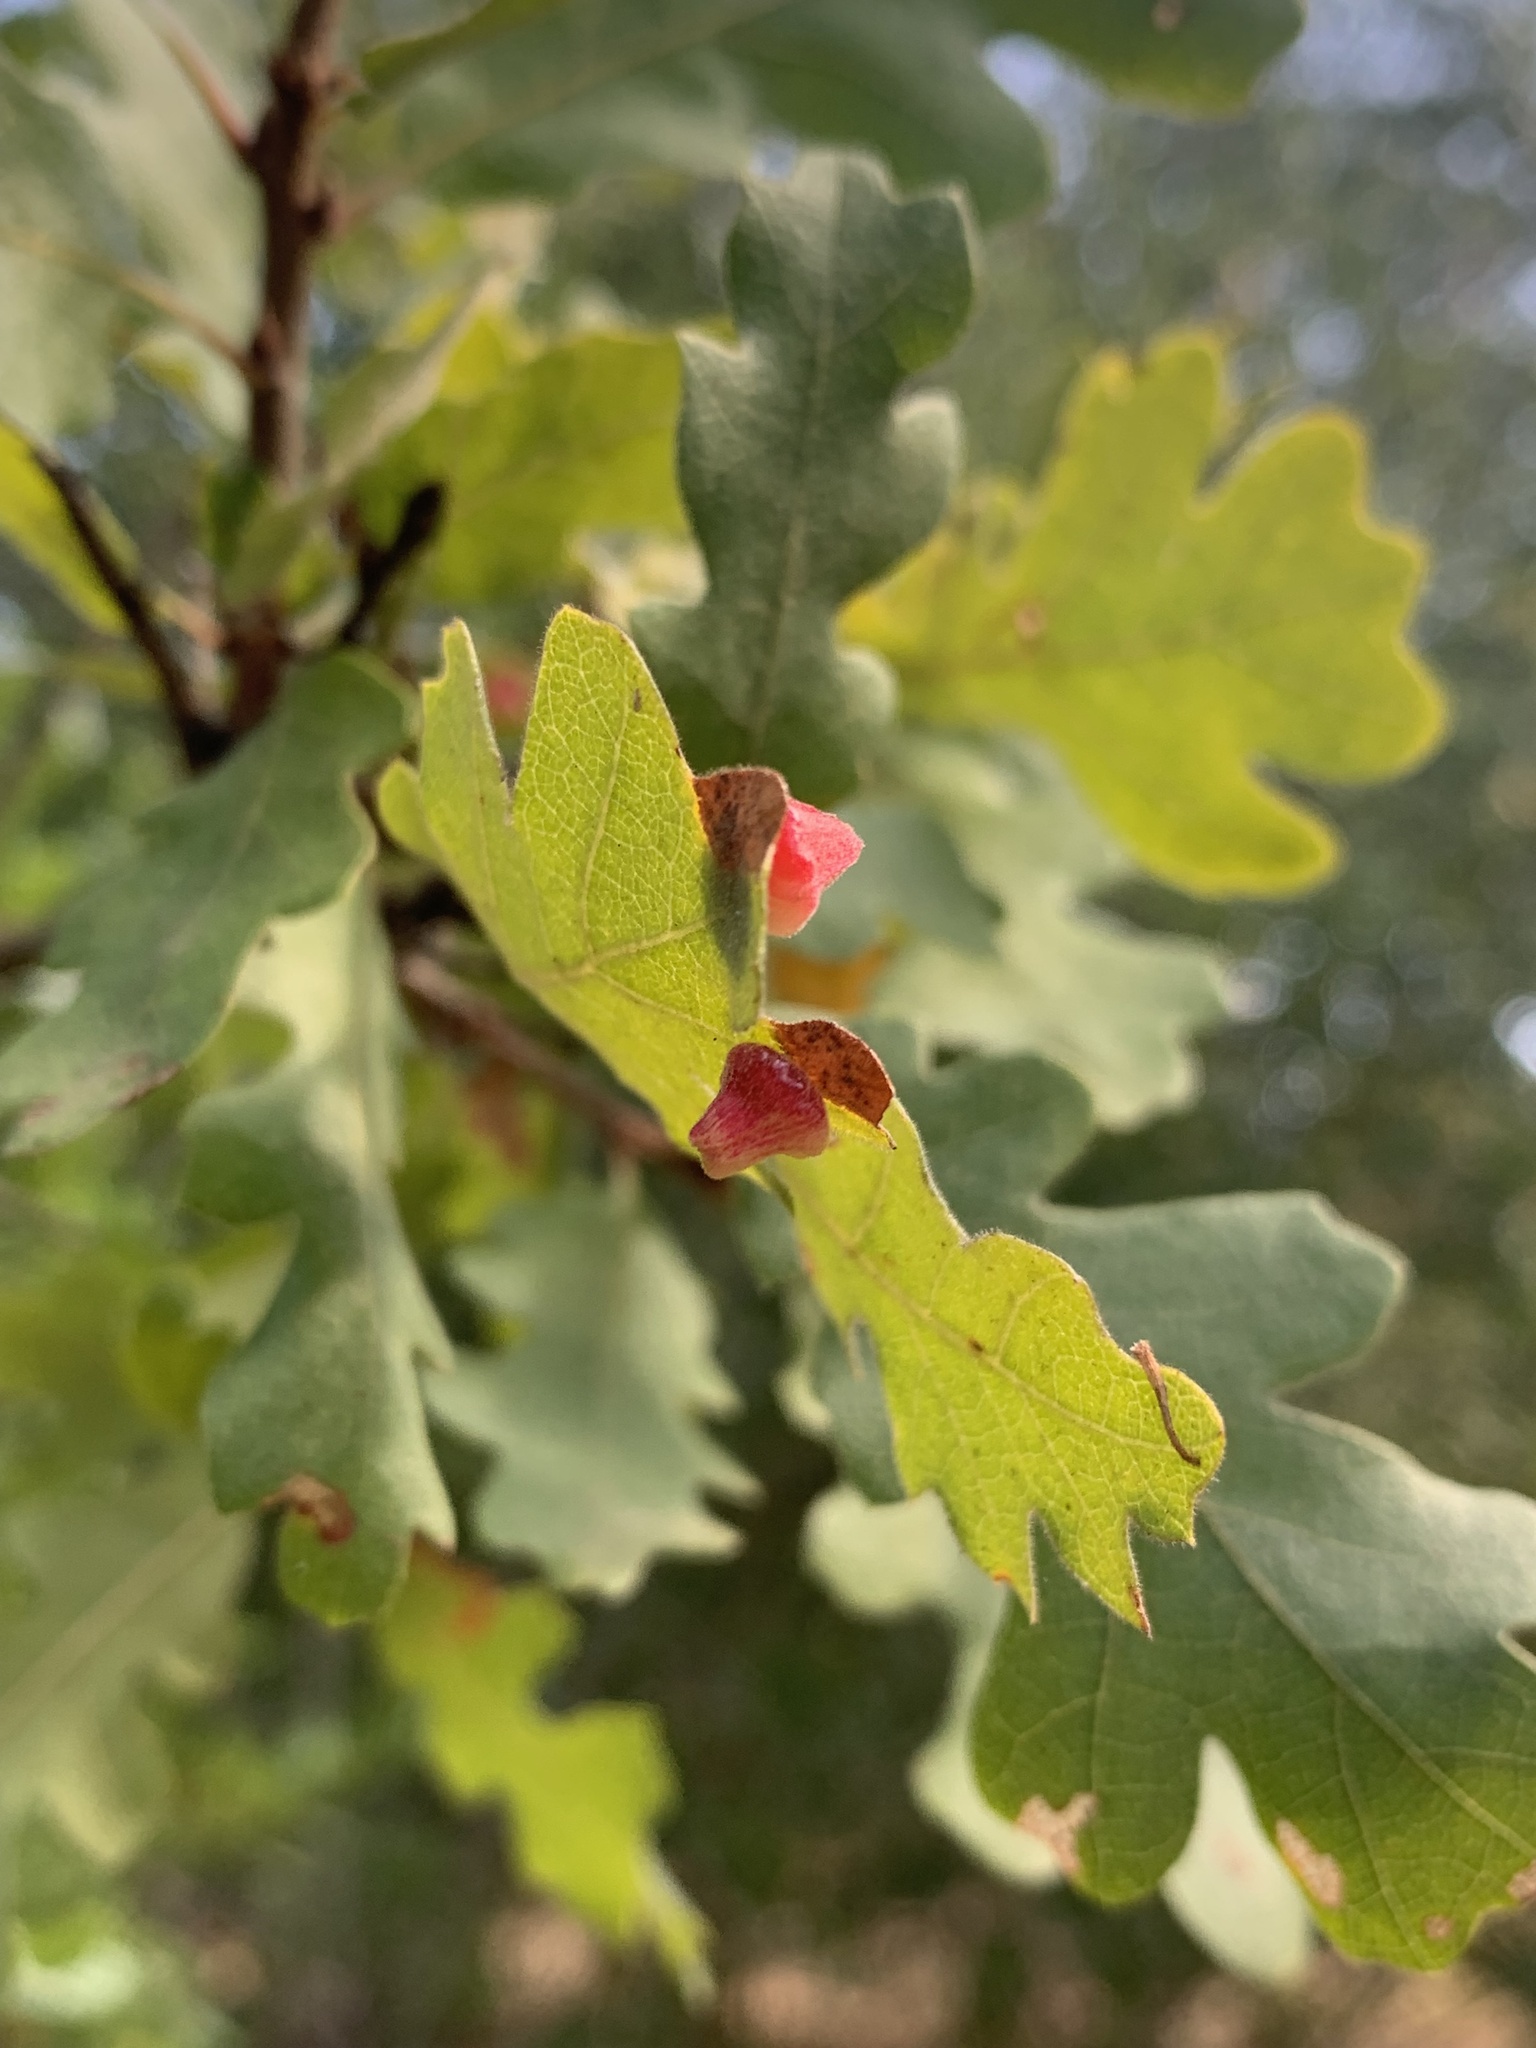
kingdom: Animalia
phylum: Arthropoda
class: Insecta
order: Hymenoptera
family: Cynipidae
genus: Andricus
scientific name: Andricus
